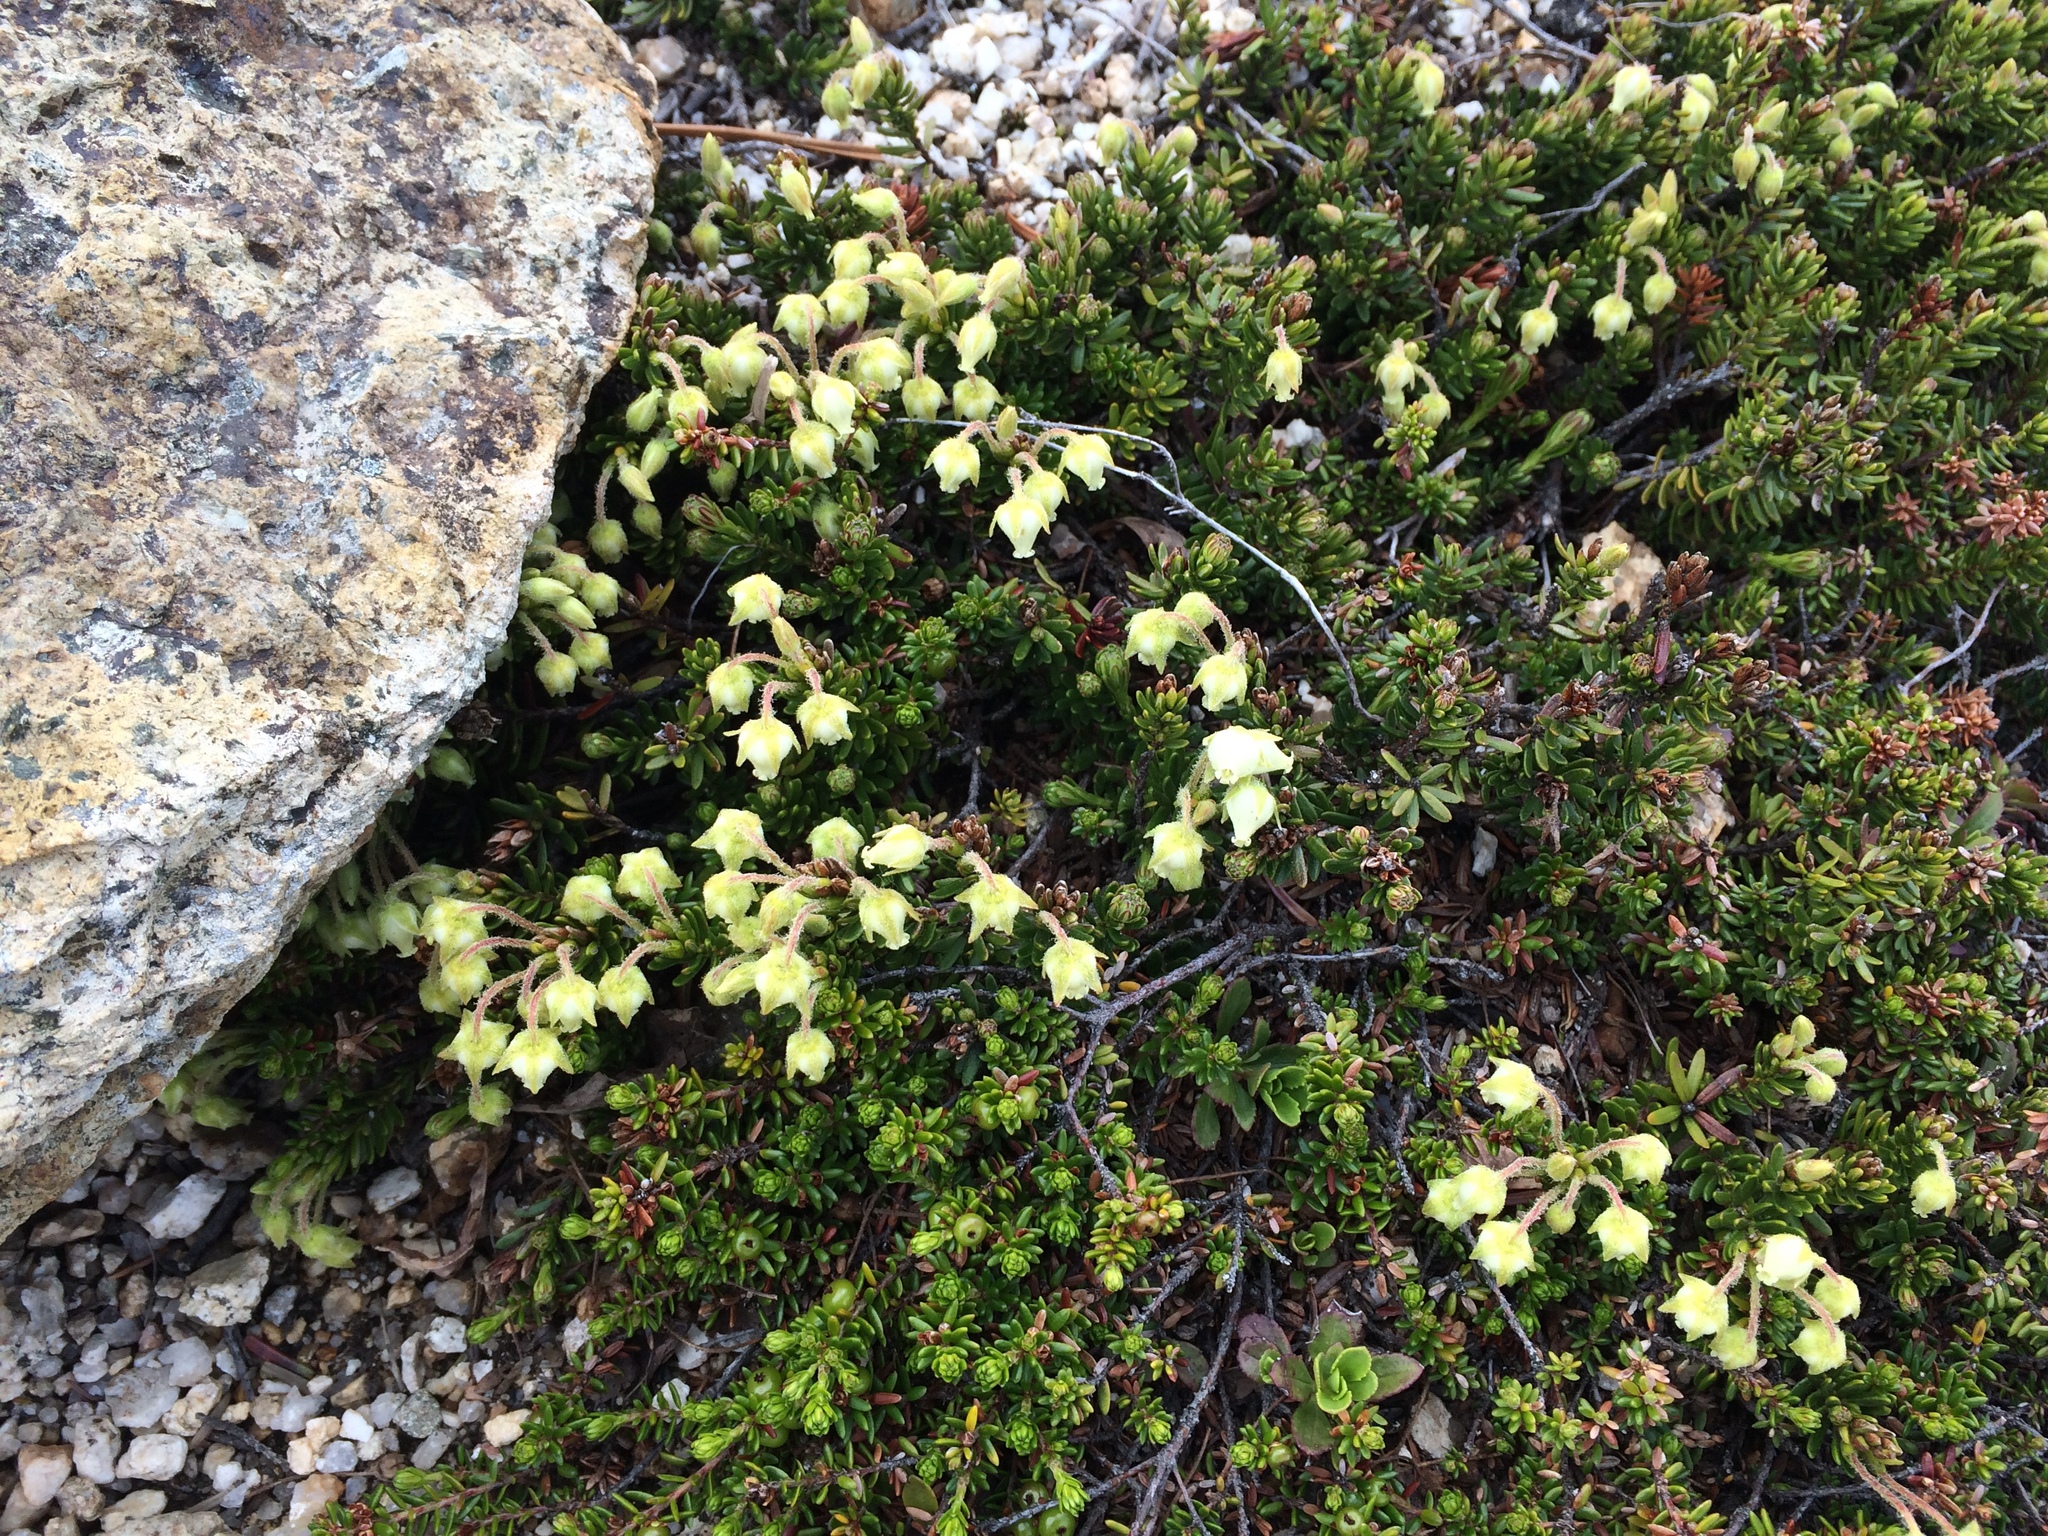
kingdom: Plantae
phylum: Tracheophyta
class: Magnoliopsida
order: Ericales
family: Ericaceae
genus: Phyllodoce
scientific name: Phyllodoce glanduliflora
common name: Cream mountain heather
